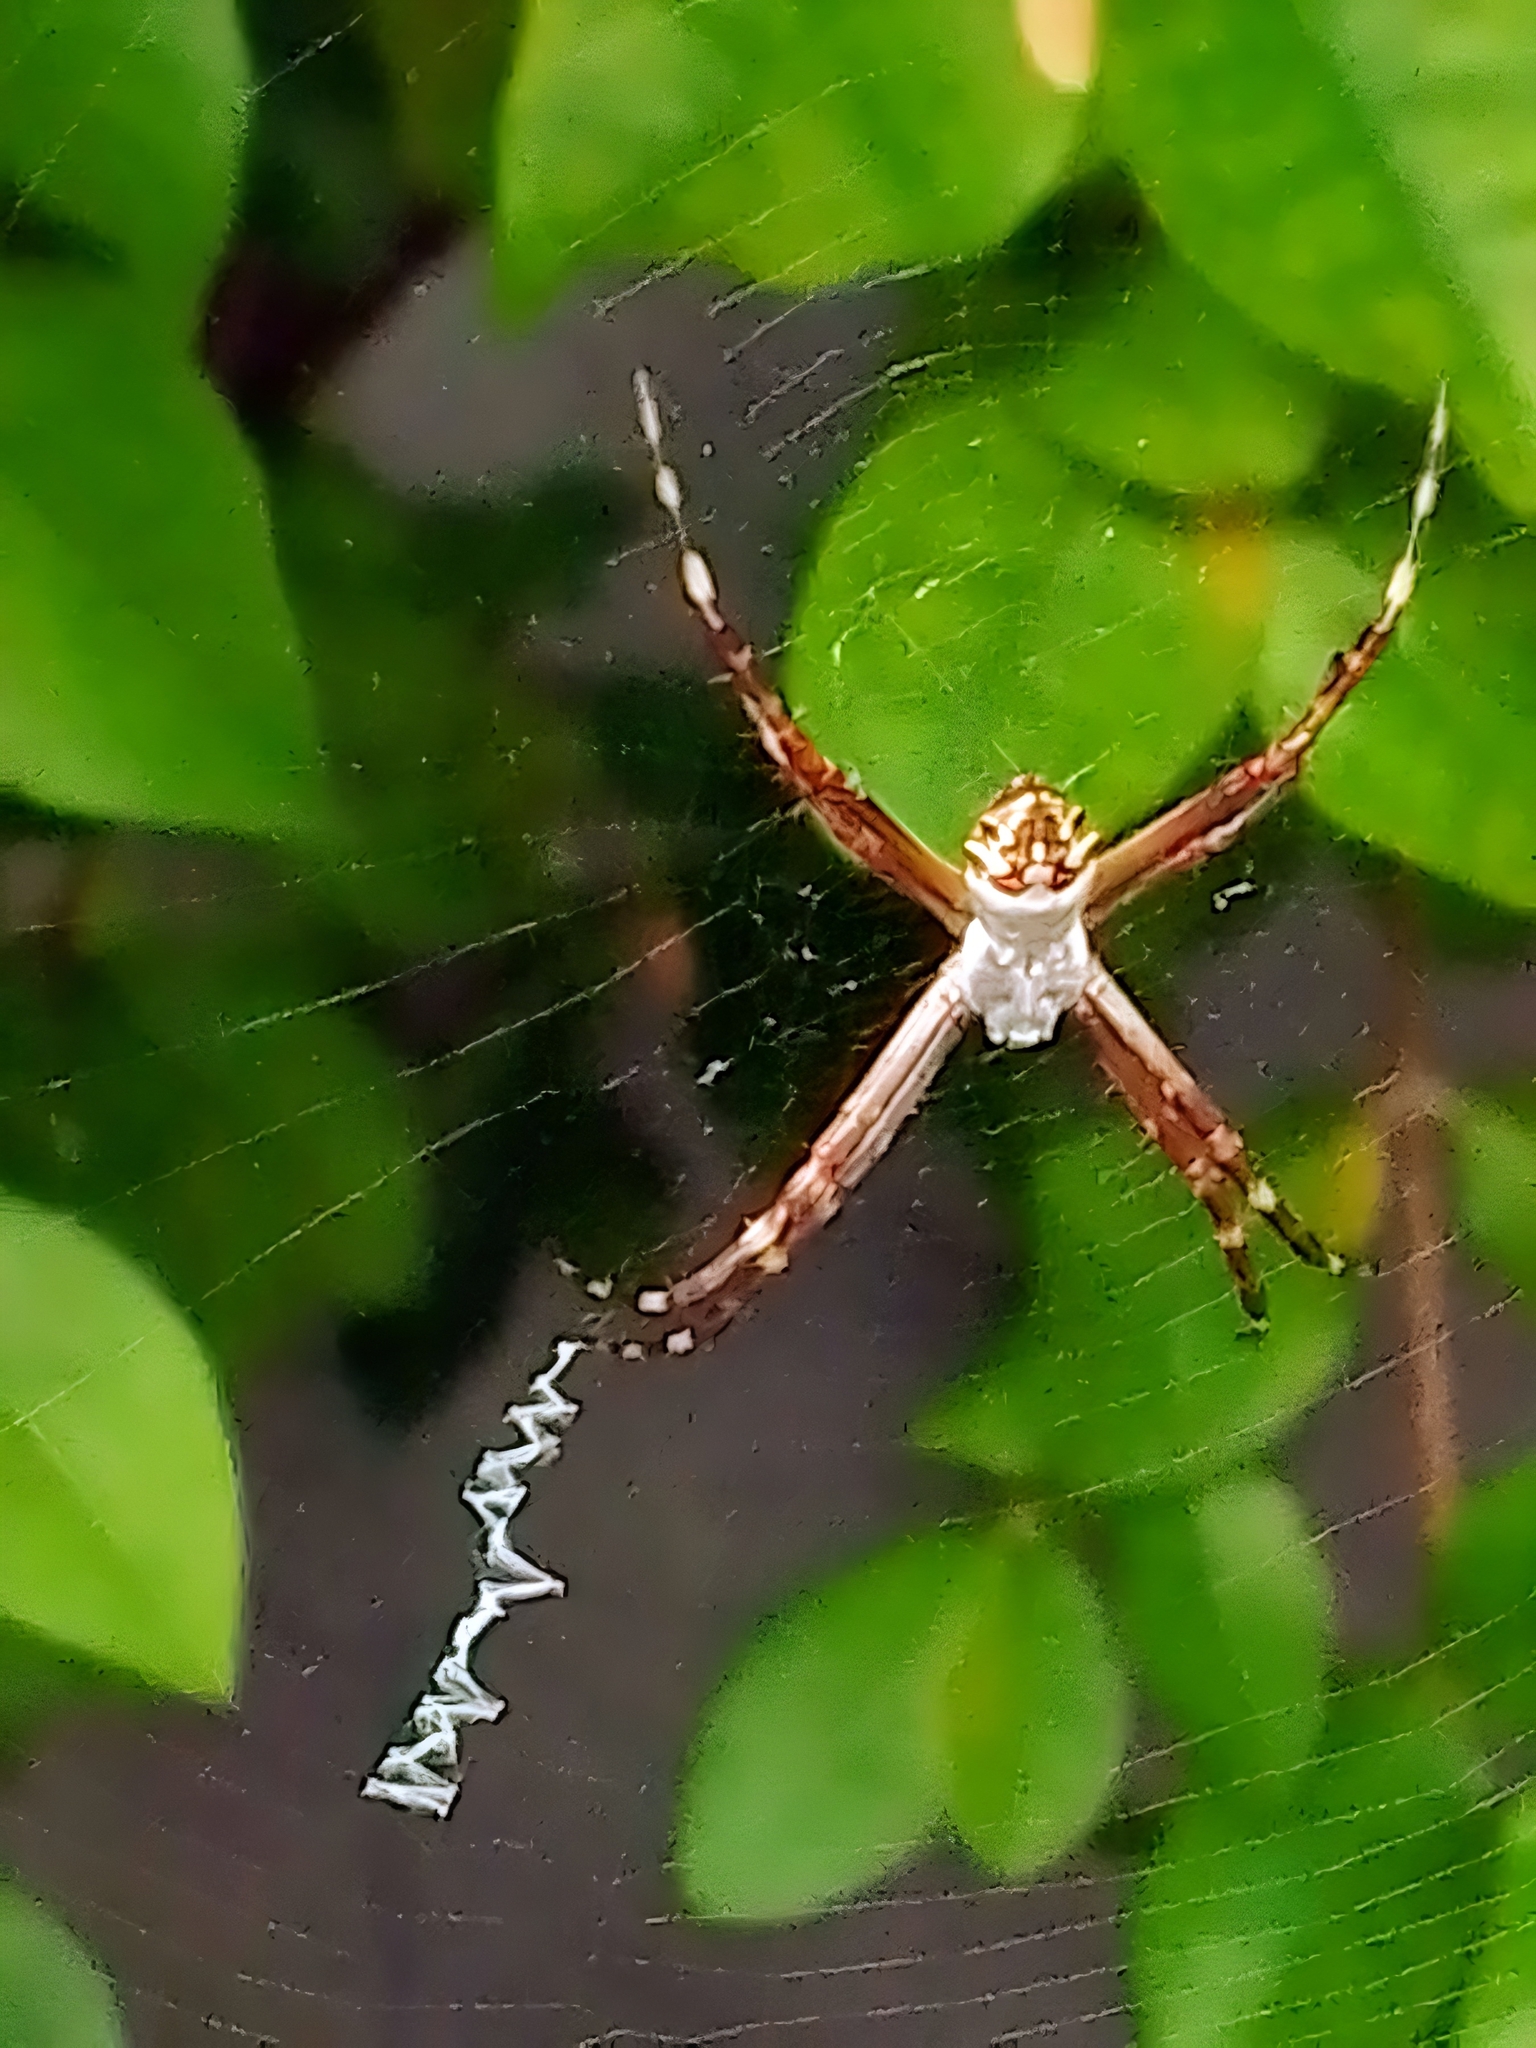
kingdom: Animalia
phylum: Arthropoda
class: Arachnida
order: Araneae
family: Araneidae
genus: Argiope
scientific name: Argiope argentata
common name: Orb weavers
